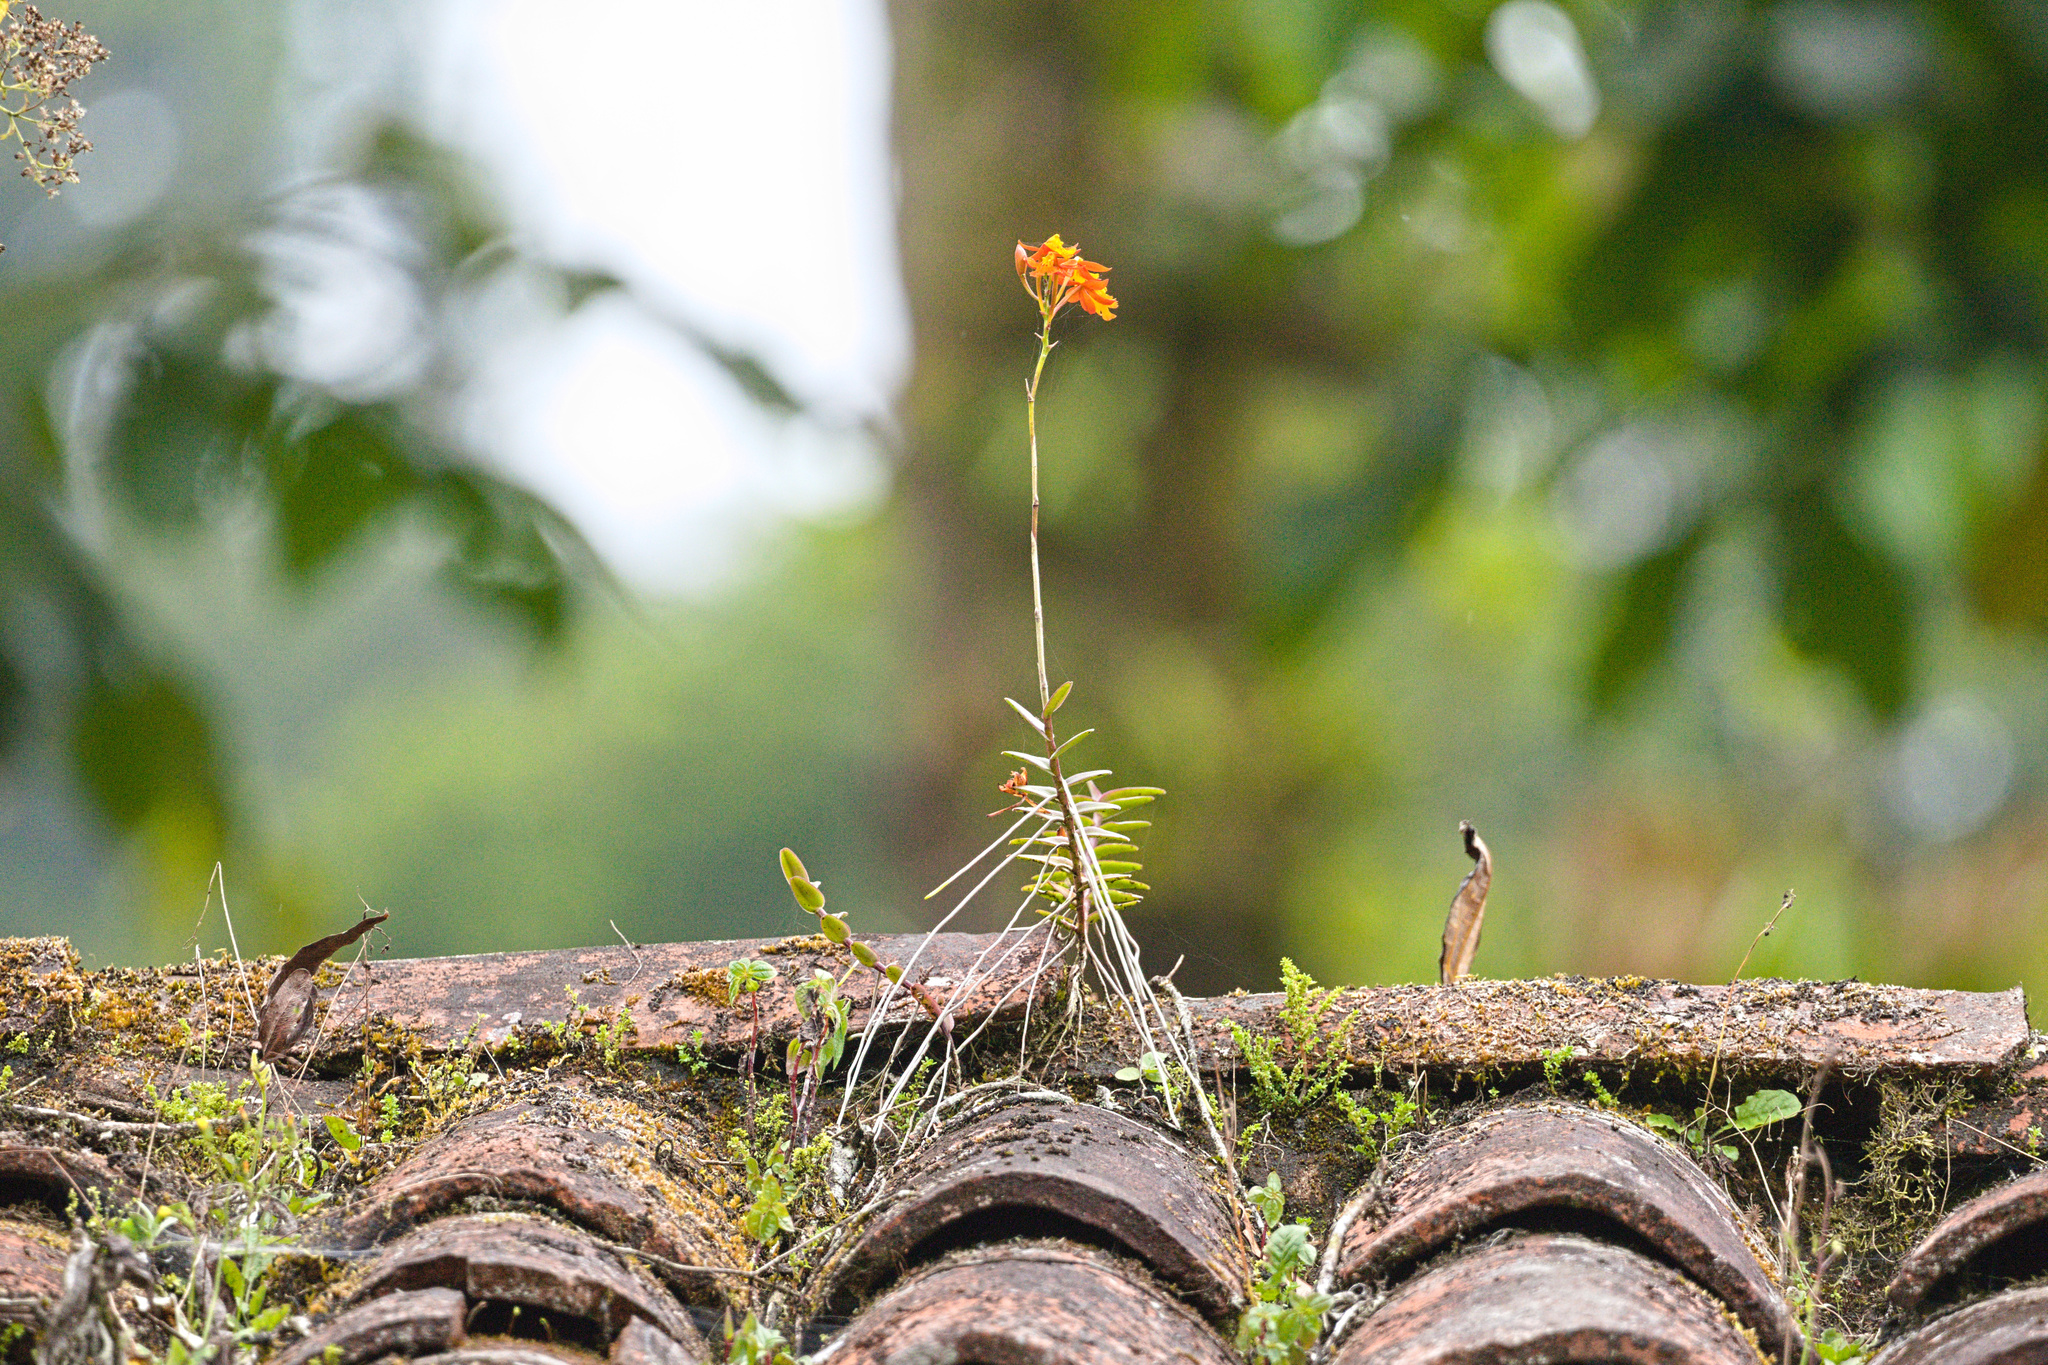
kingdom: Plantae
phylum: Tracheophyta
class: Liliopsida
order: Asparagales
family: Orchidaceae
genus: Epidendrum
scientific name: Epidendrum radicans
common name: Fire star orchid
